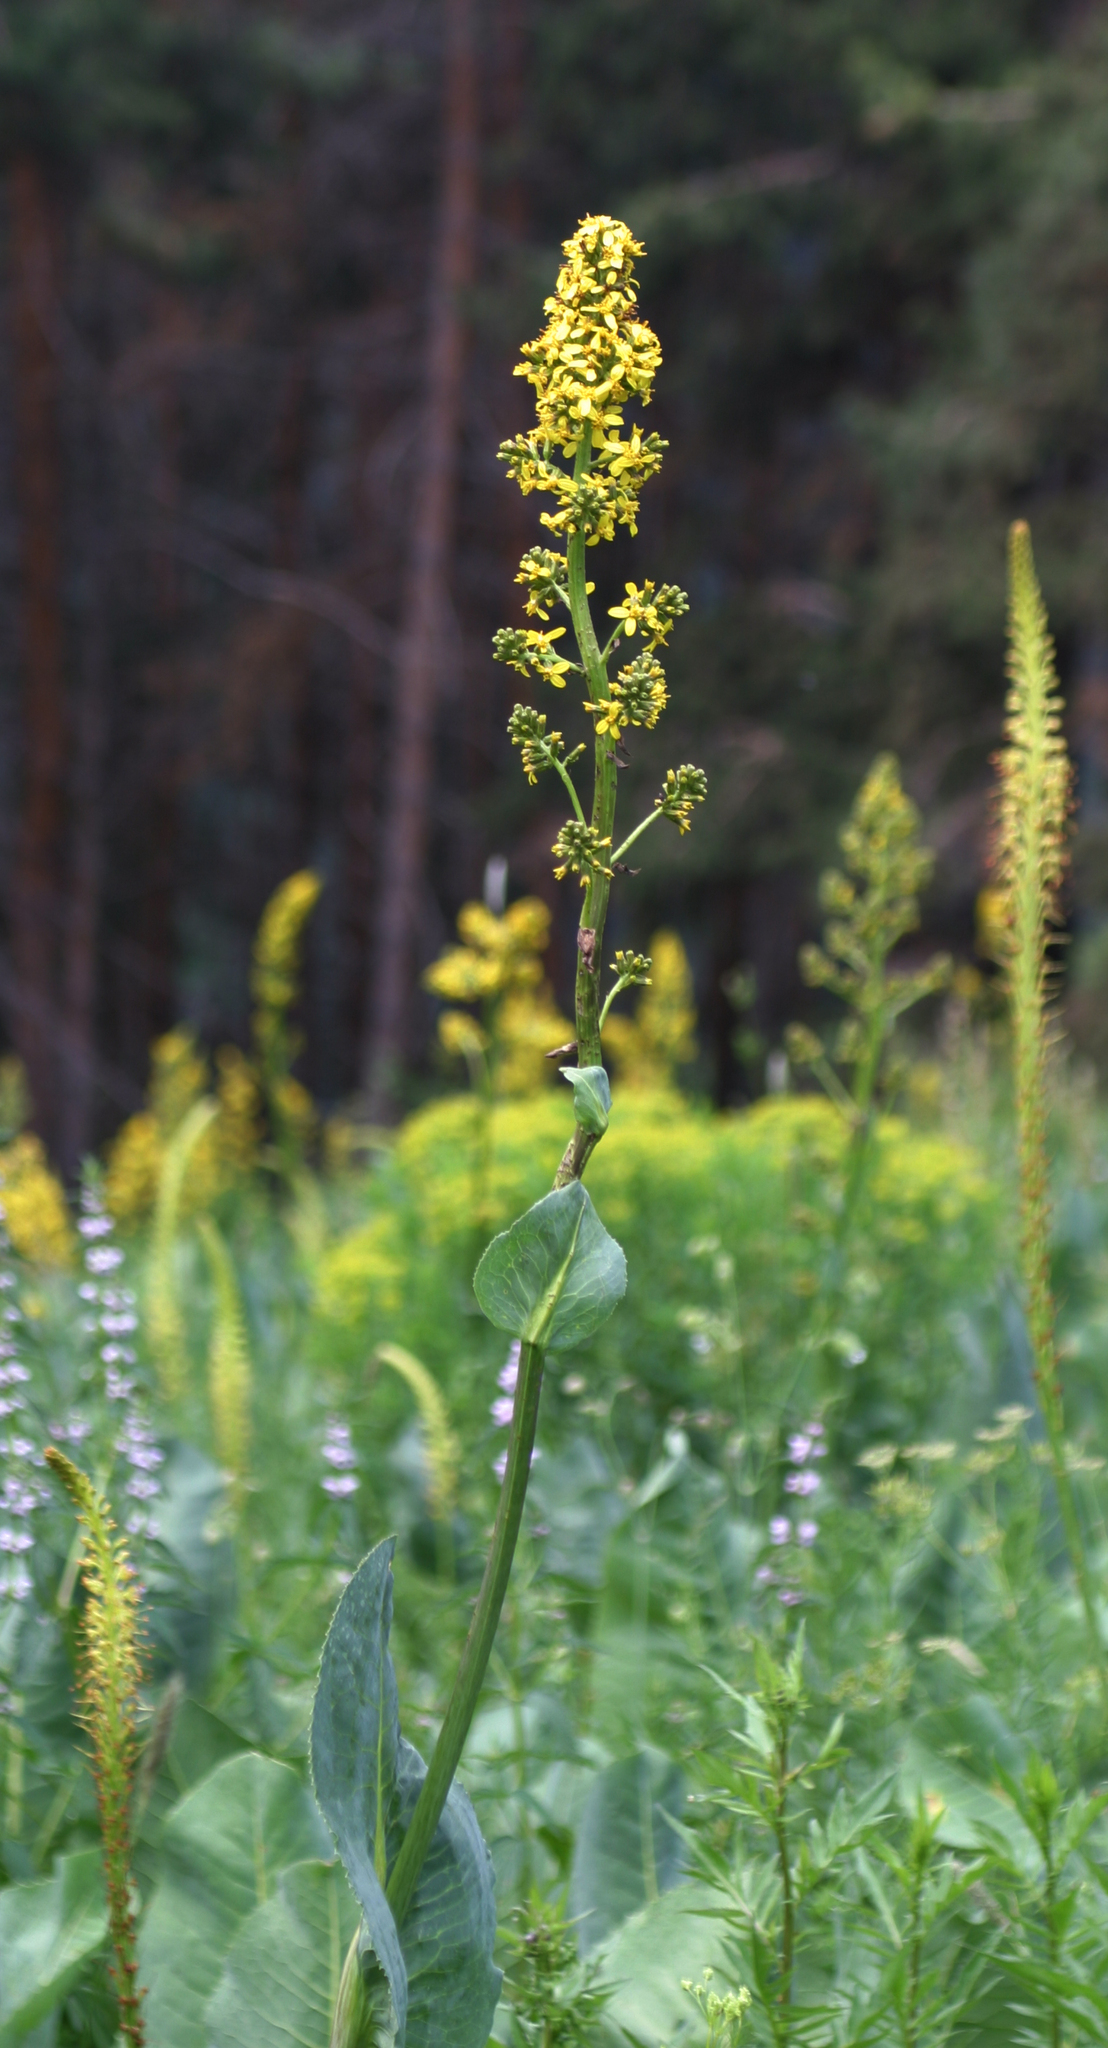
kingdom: Plantae
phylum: Tracheophyta
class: Magnoliopsida
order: Asterales
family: Asteraceae
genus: Ligularia
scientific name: Ligularia heterophylla
